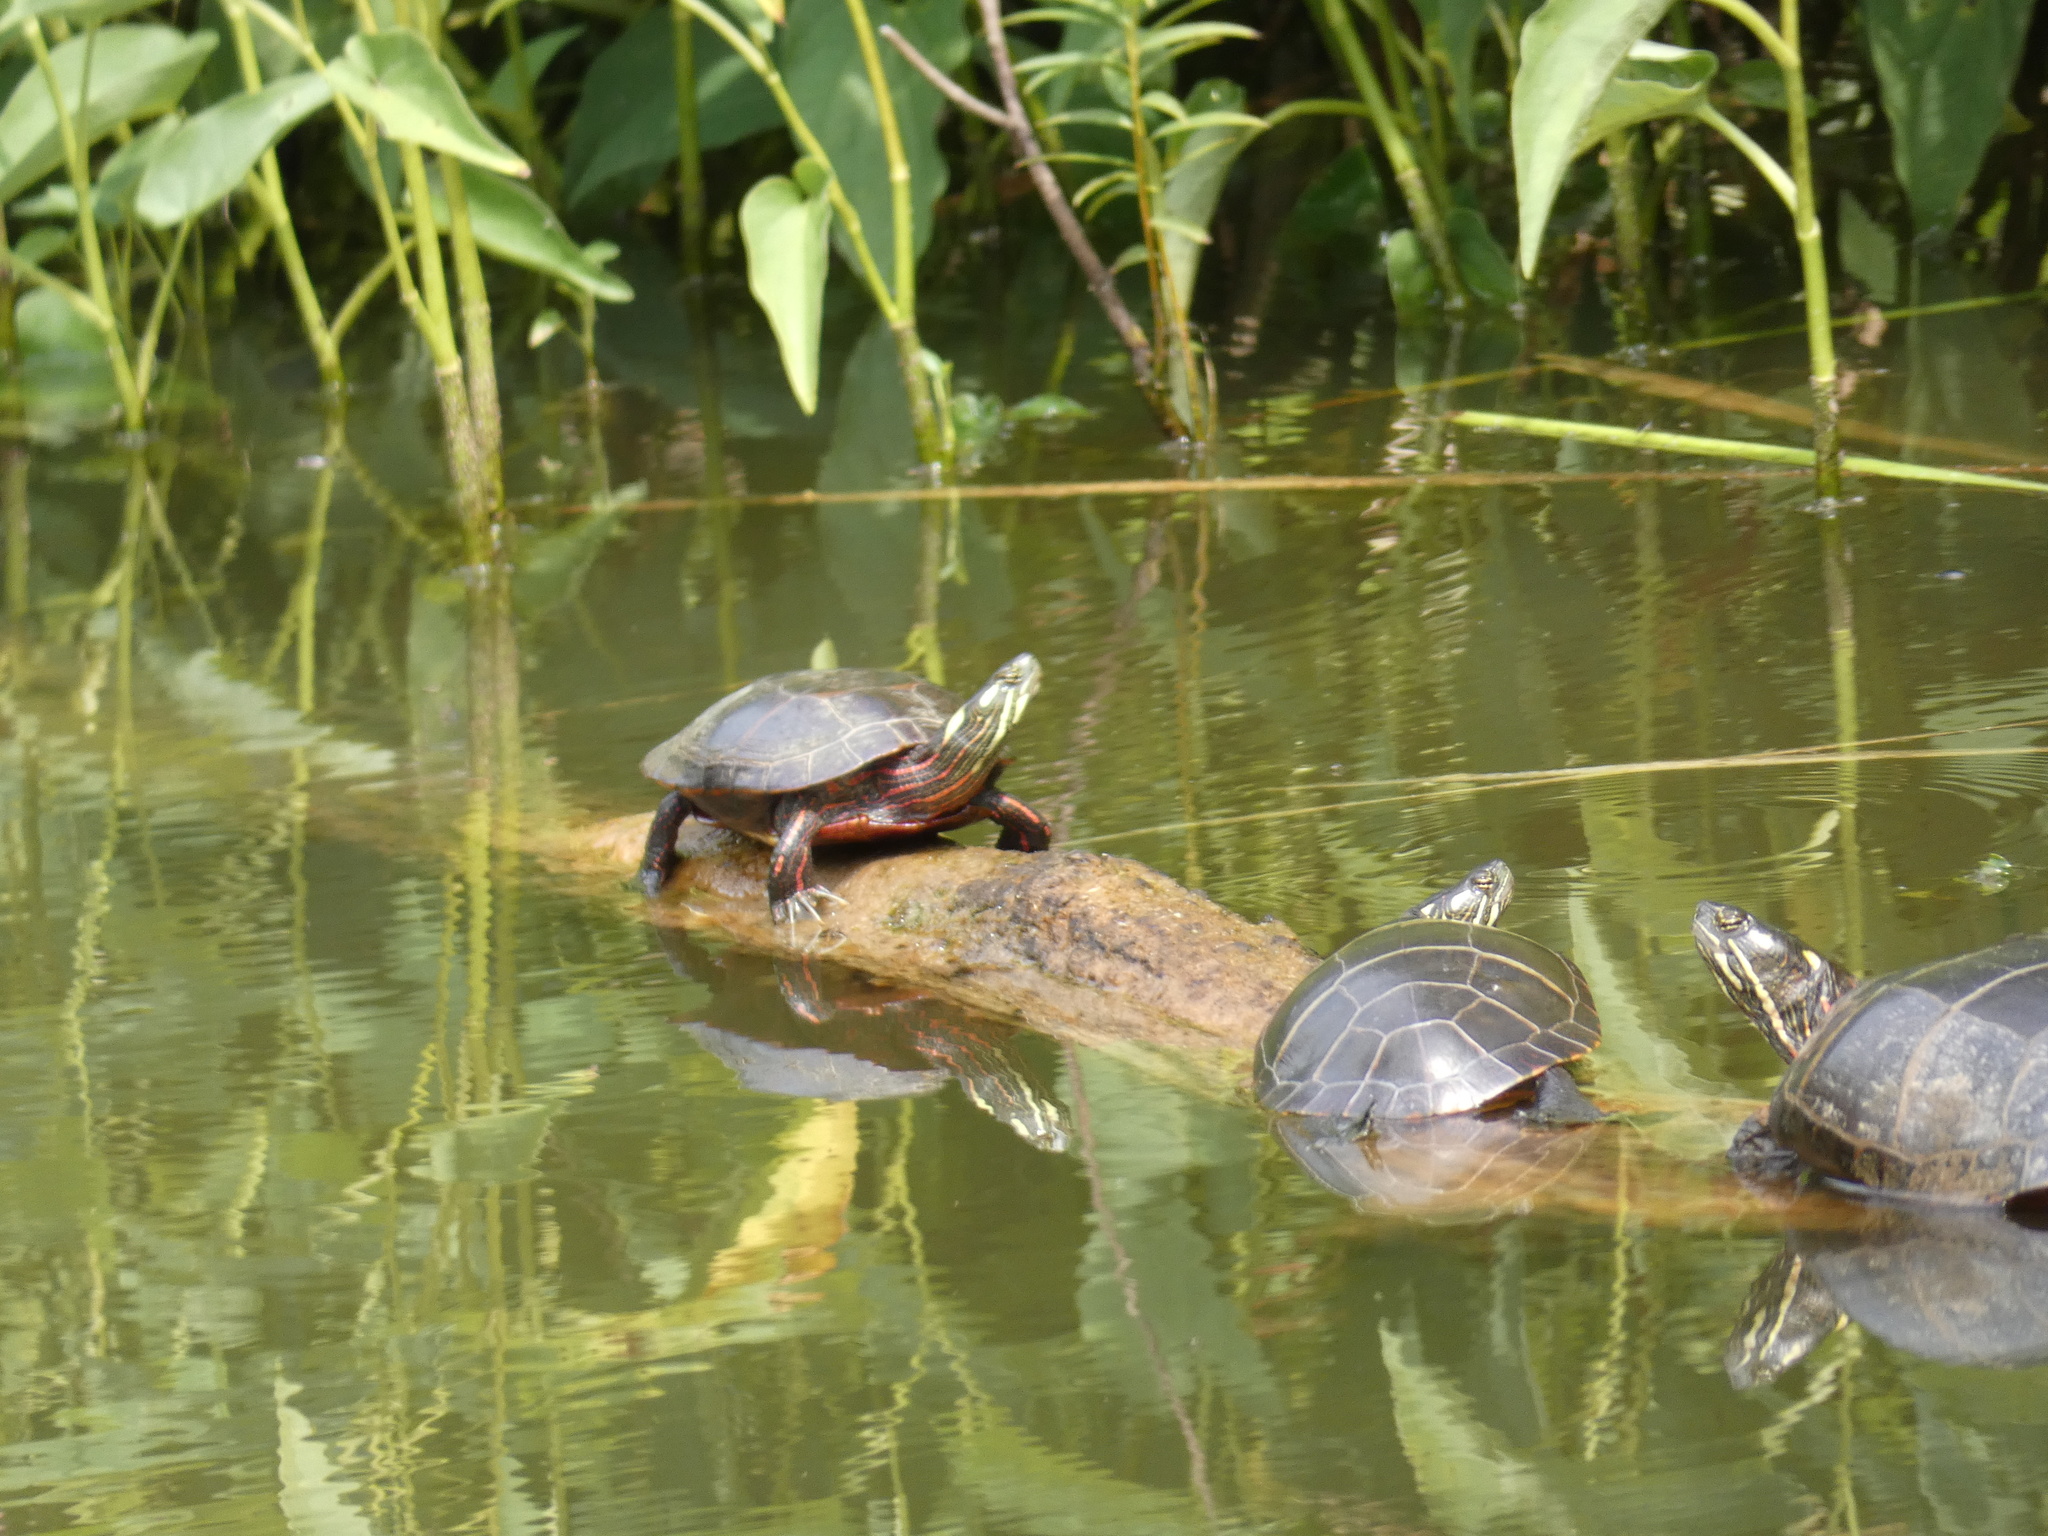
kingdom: Animalia
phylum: Chordata
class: Testudines
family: Emydidae
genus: Chrysemys
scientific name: Chrysemys picta
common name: Painted turtle
